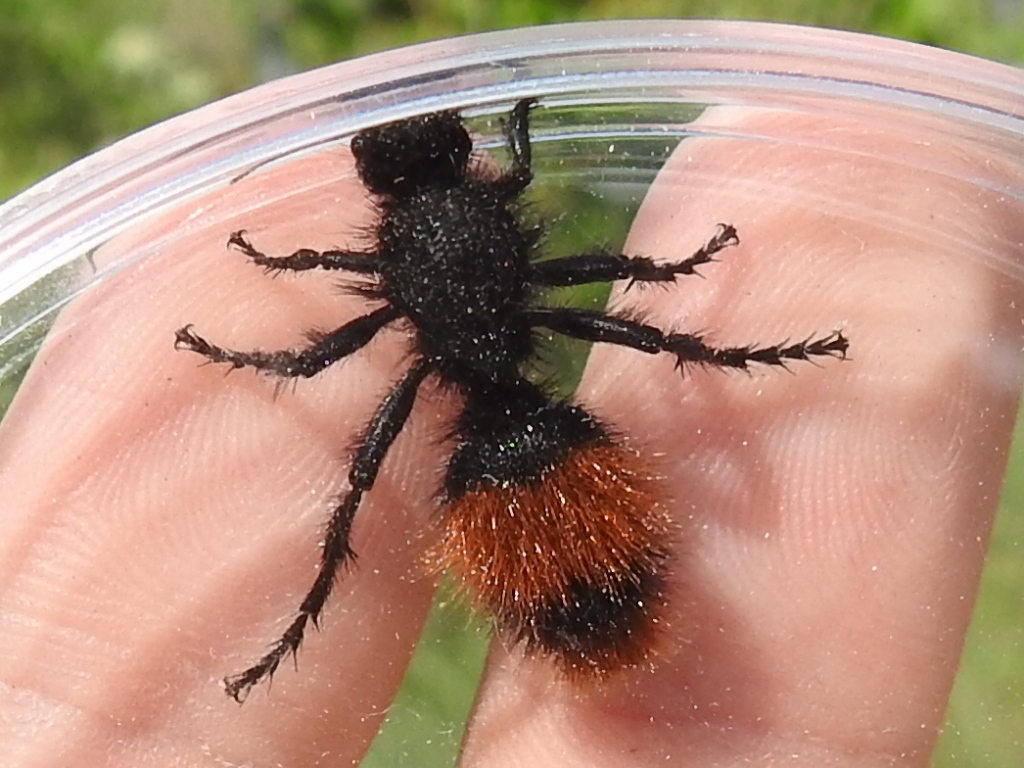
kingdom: Animalia
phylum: Arthropoda
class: Insecta
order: Hymenoptera
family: Mutillidae
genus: Dasymutilla
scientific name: Dasymutilla
